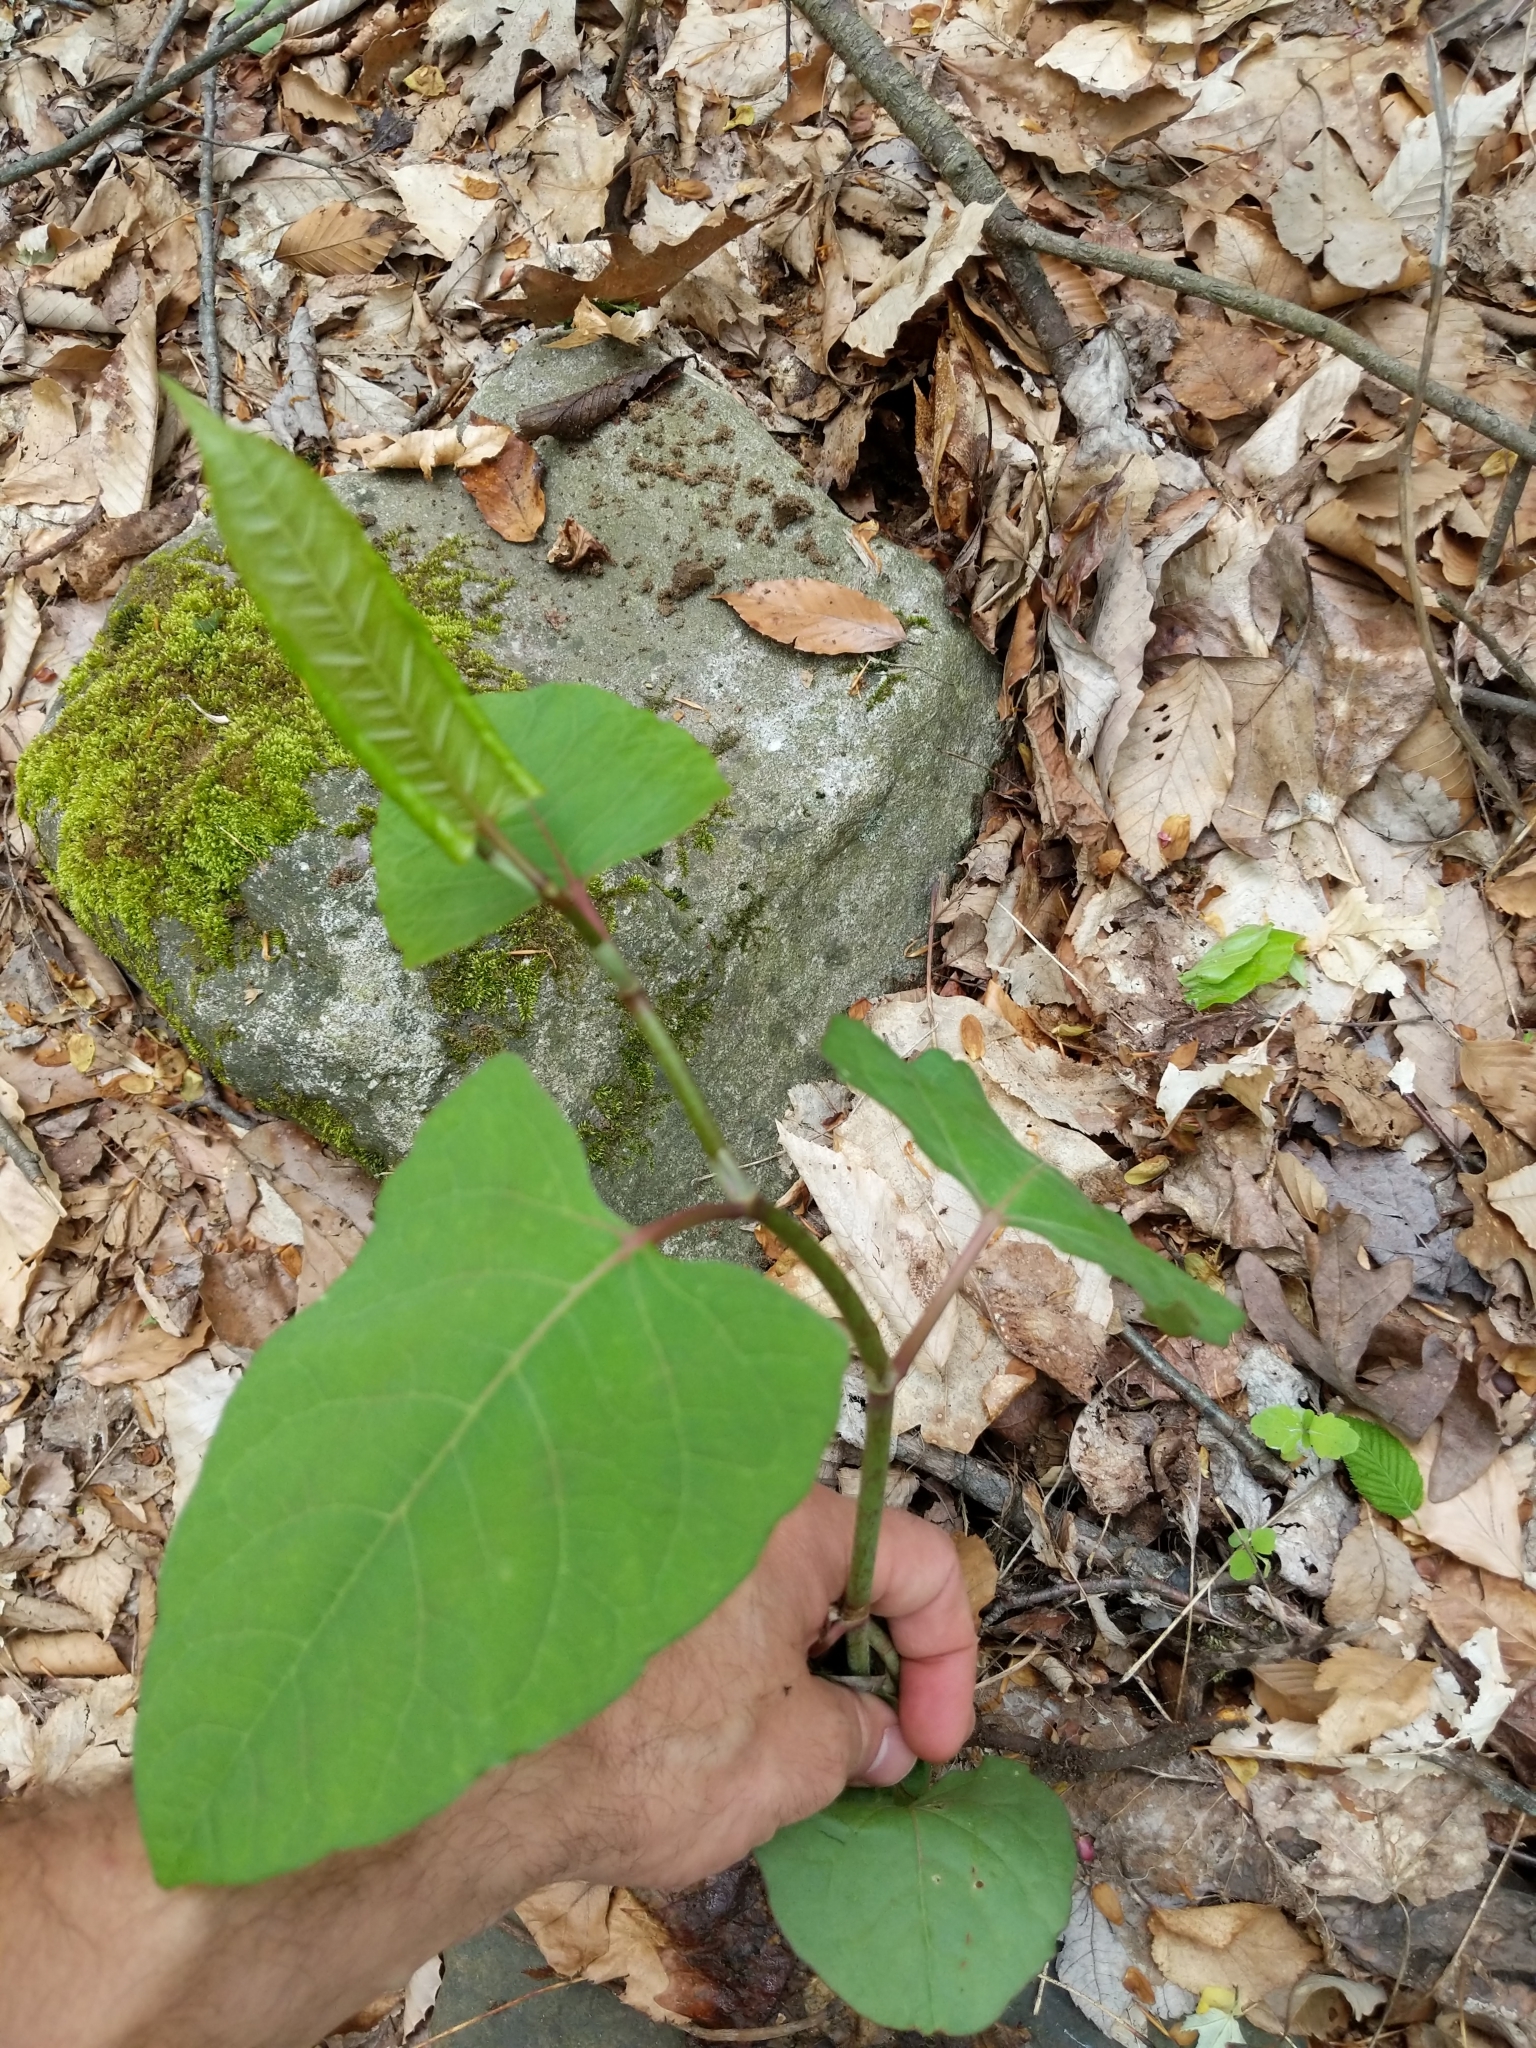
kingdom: Plantae
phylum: Tracheophyta
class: Magnoliopsida
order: Caryophyllales
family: Polygonaceae
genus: Reynoutria
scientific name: Reynoutria japonica
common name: Japanese knotweed
